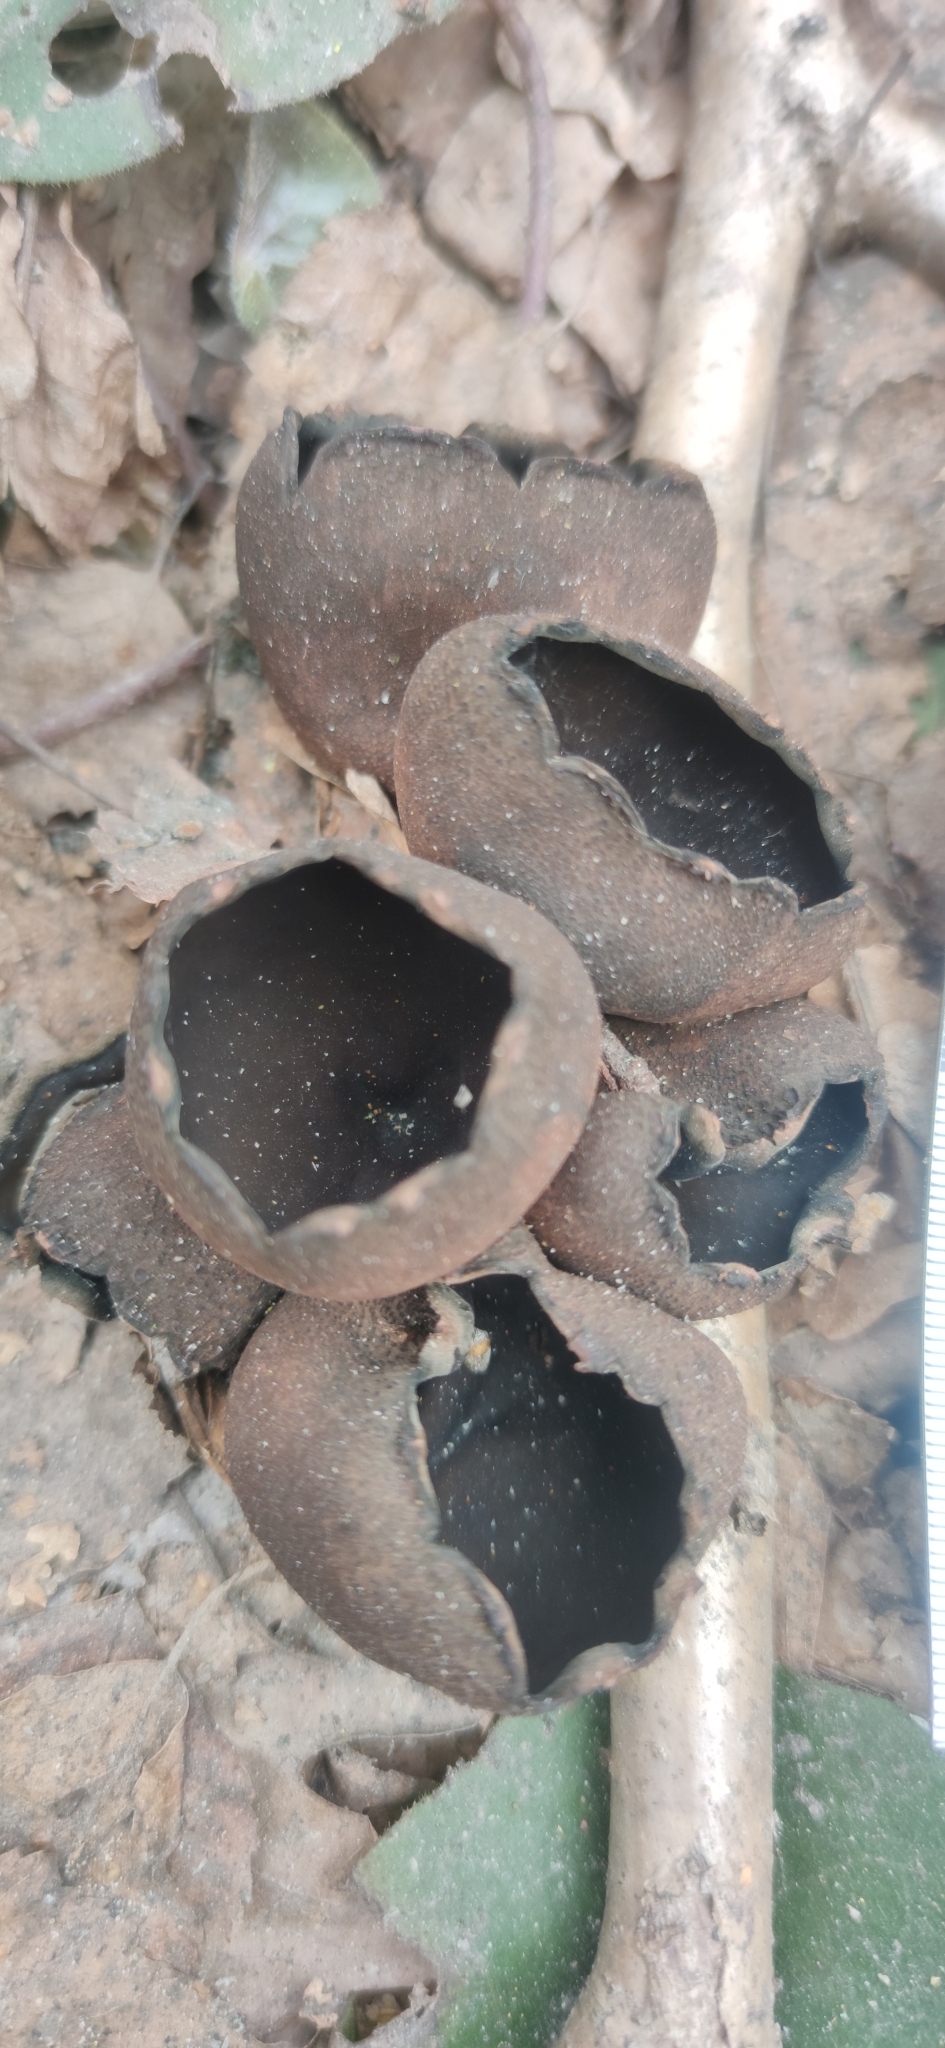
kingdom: Fungi
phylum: Ascomycota
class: Pezizomycetes
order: Pezizales
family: Sarcosomataceae
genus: Urnula
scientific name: Urnula craterium
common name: Devil's urn
